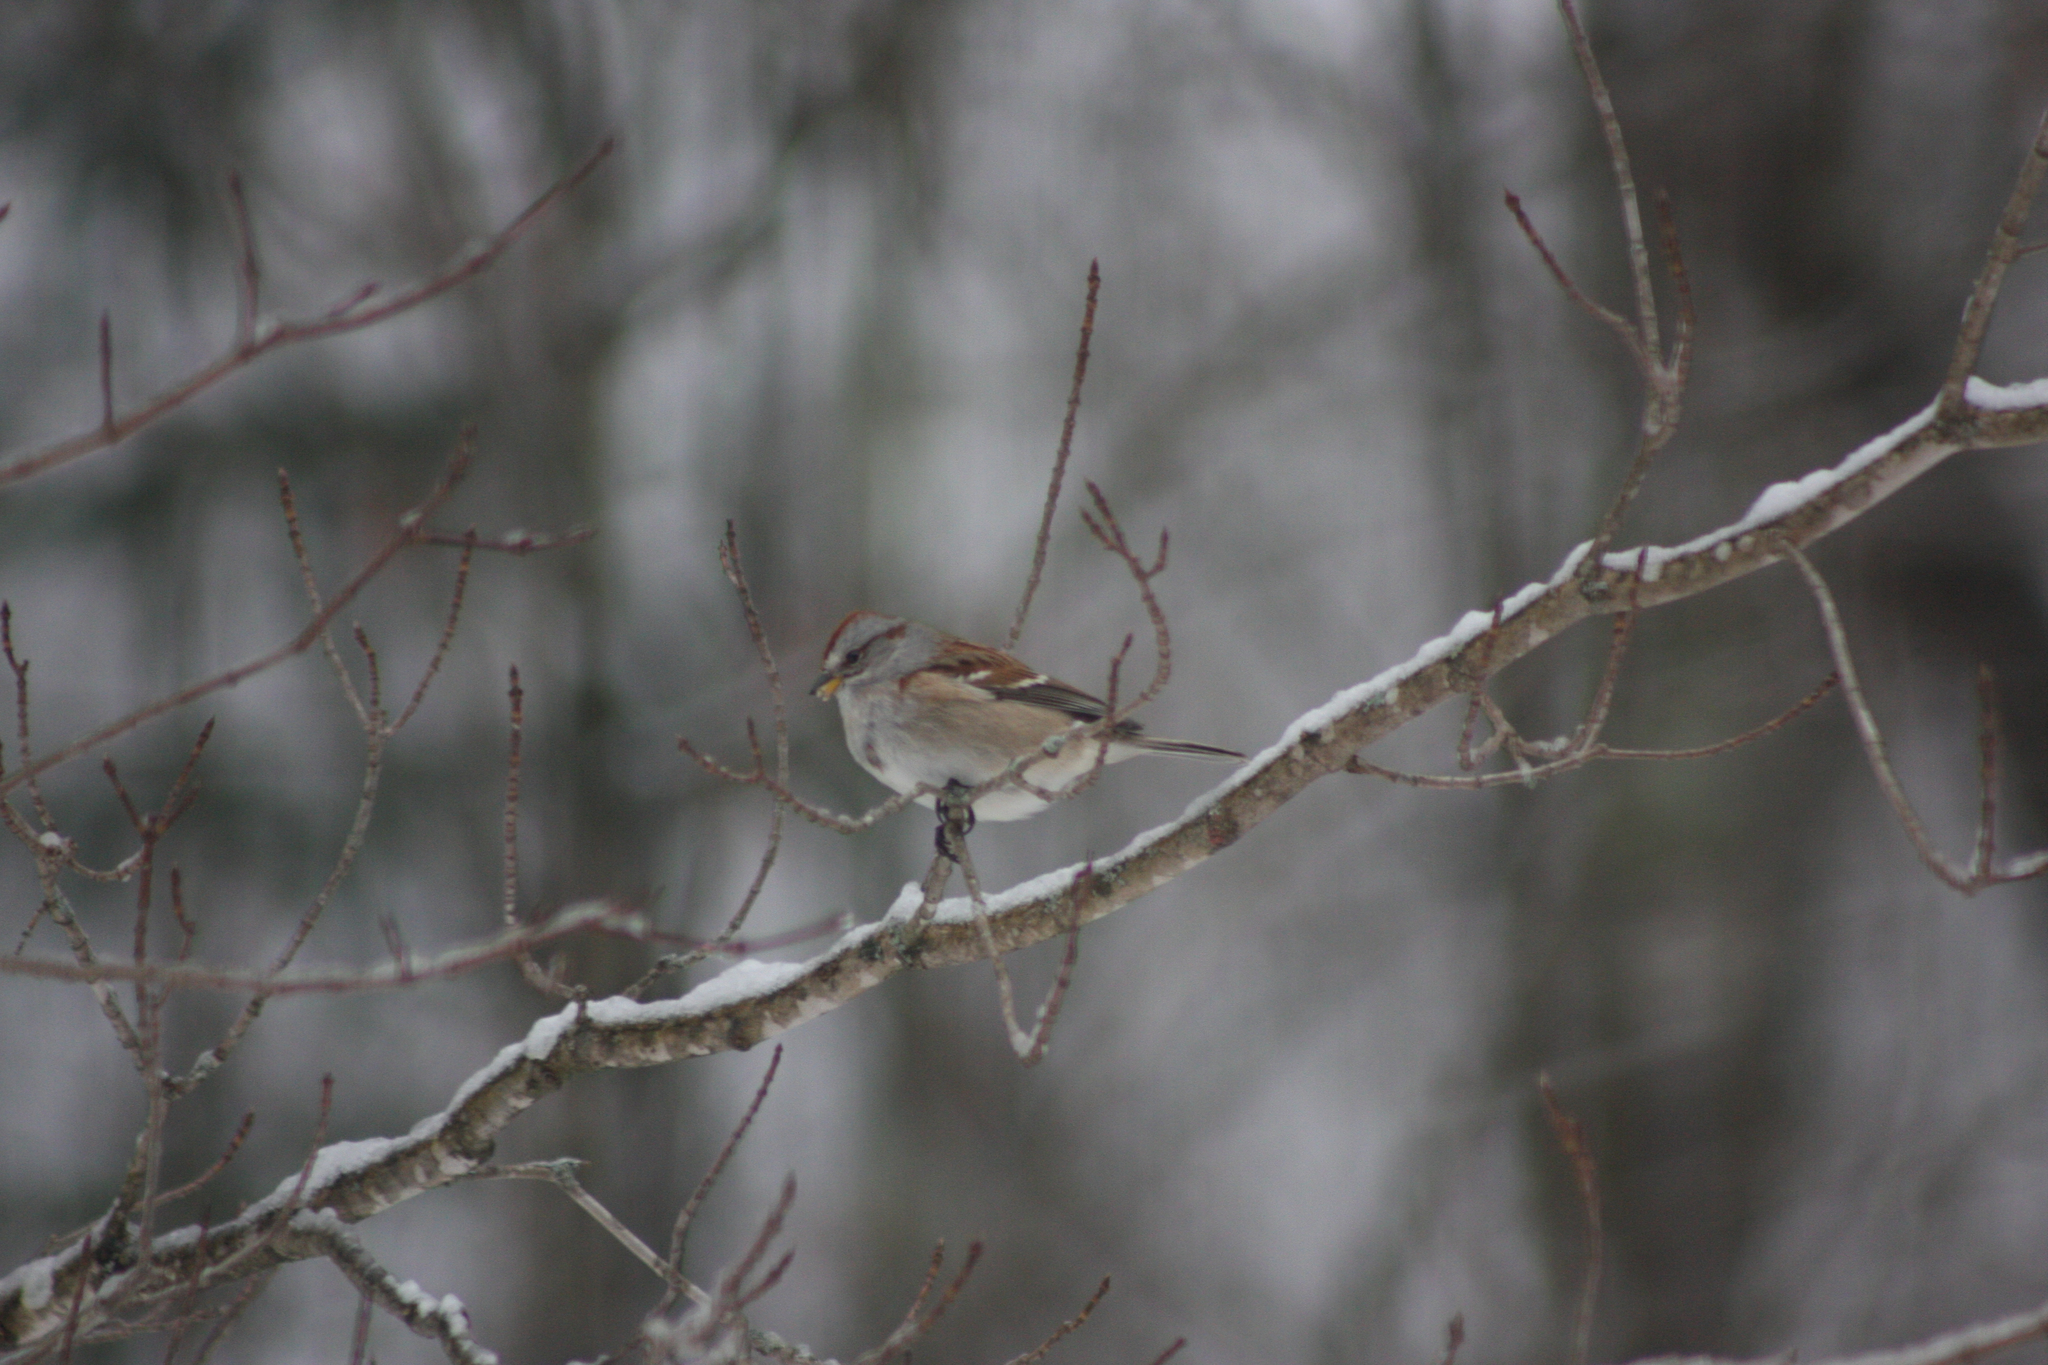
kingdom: Animalia
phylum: Chordata
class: Aves
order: Passeriformes
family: Passerellidae
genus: Spizelloides
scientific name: Spizelloides arborea
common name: American tree sparrow
